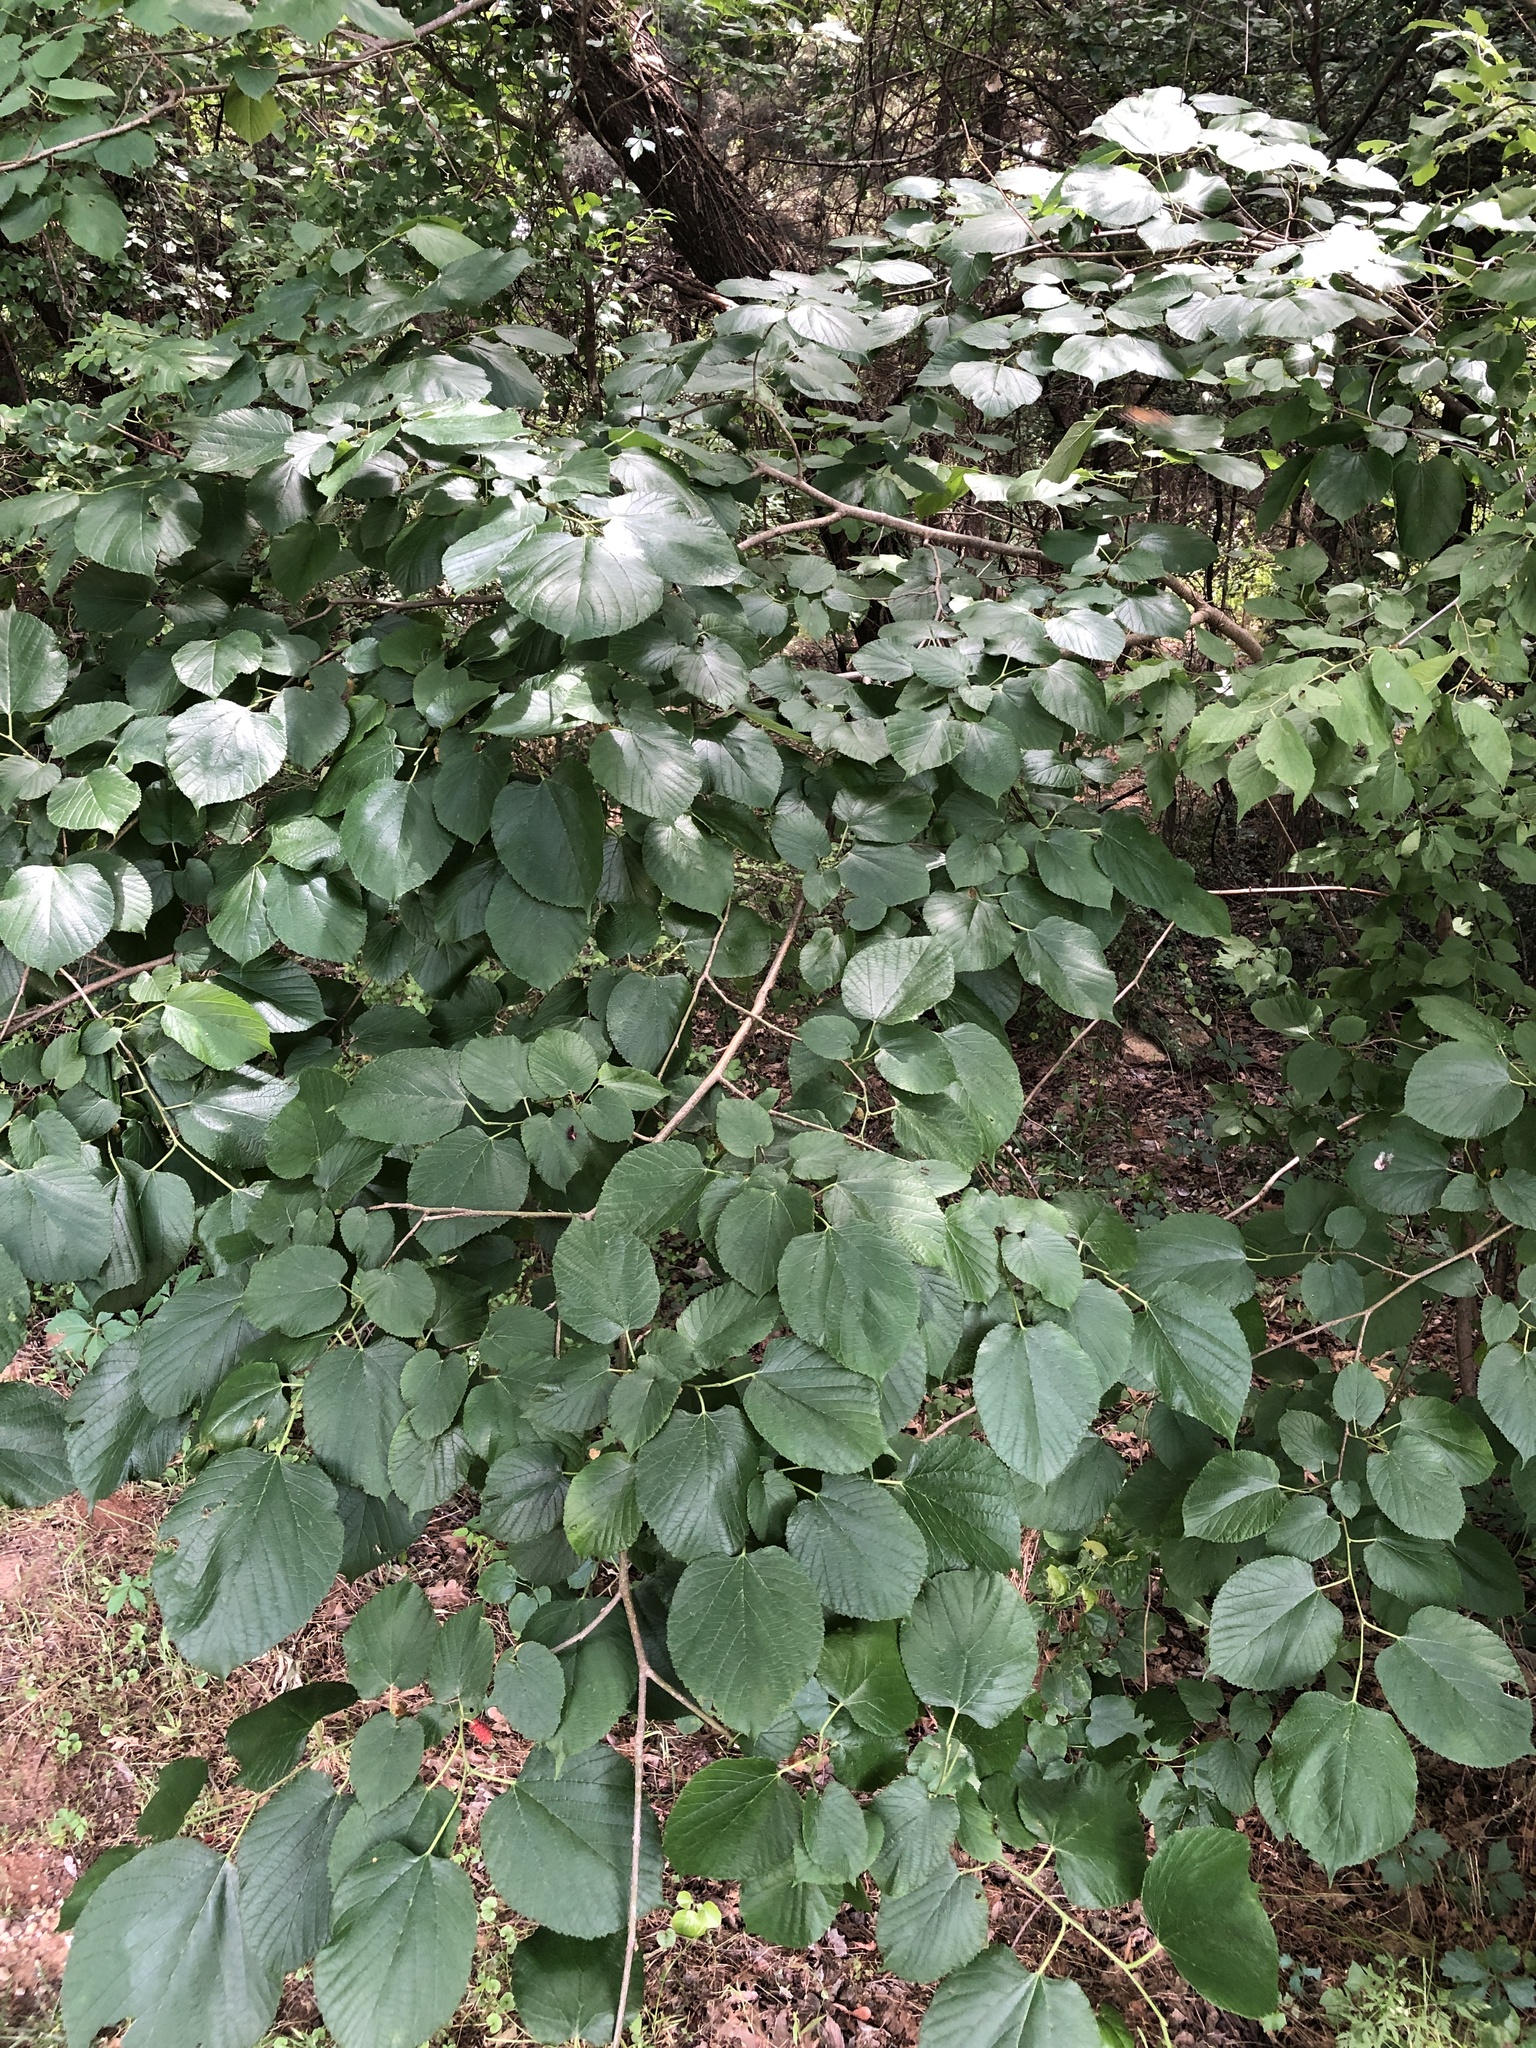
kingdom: Plantae
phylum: Tracheophyta
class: Magnoliopsida
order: Rosales
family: Moraceae
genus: Morus
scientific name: Morus rubra
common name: Red mulberry
